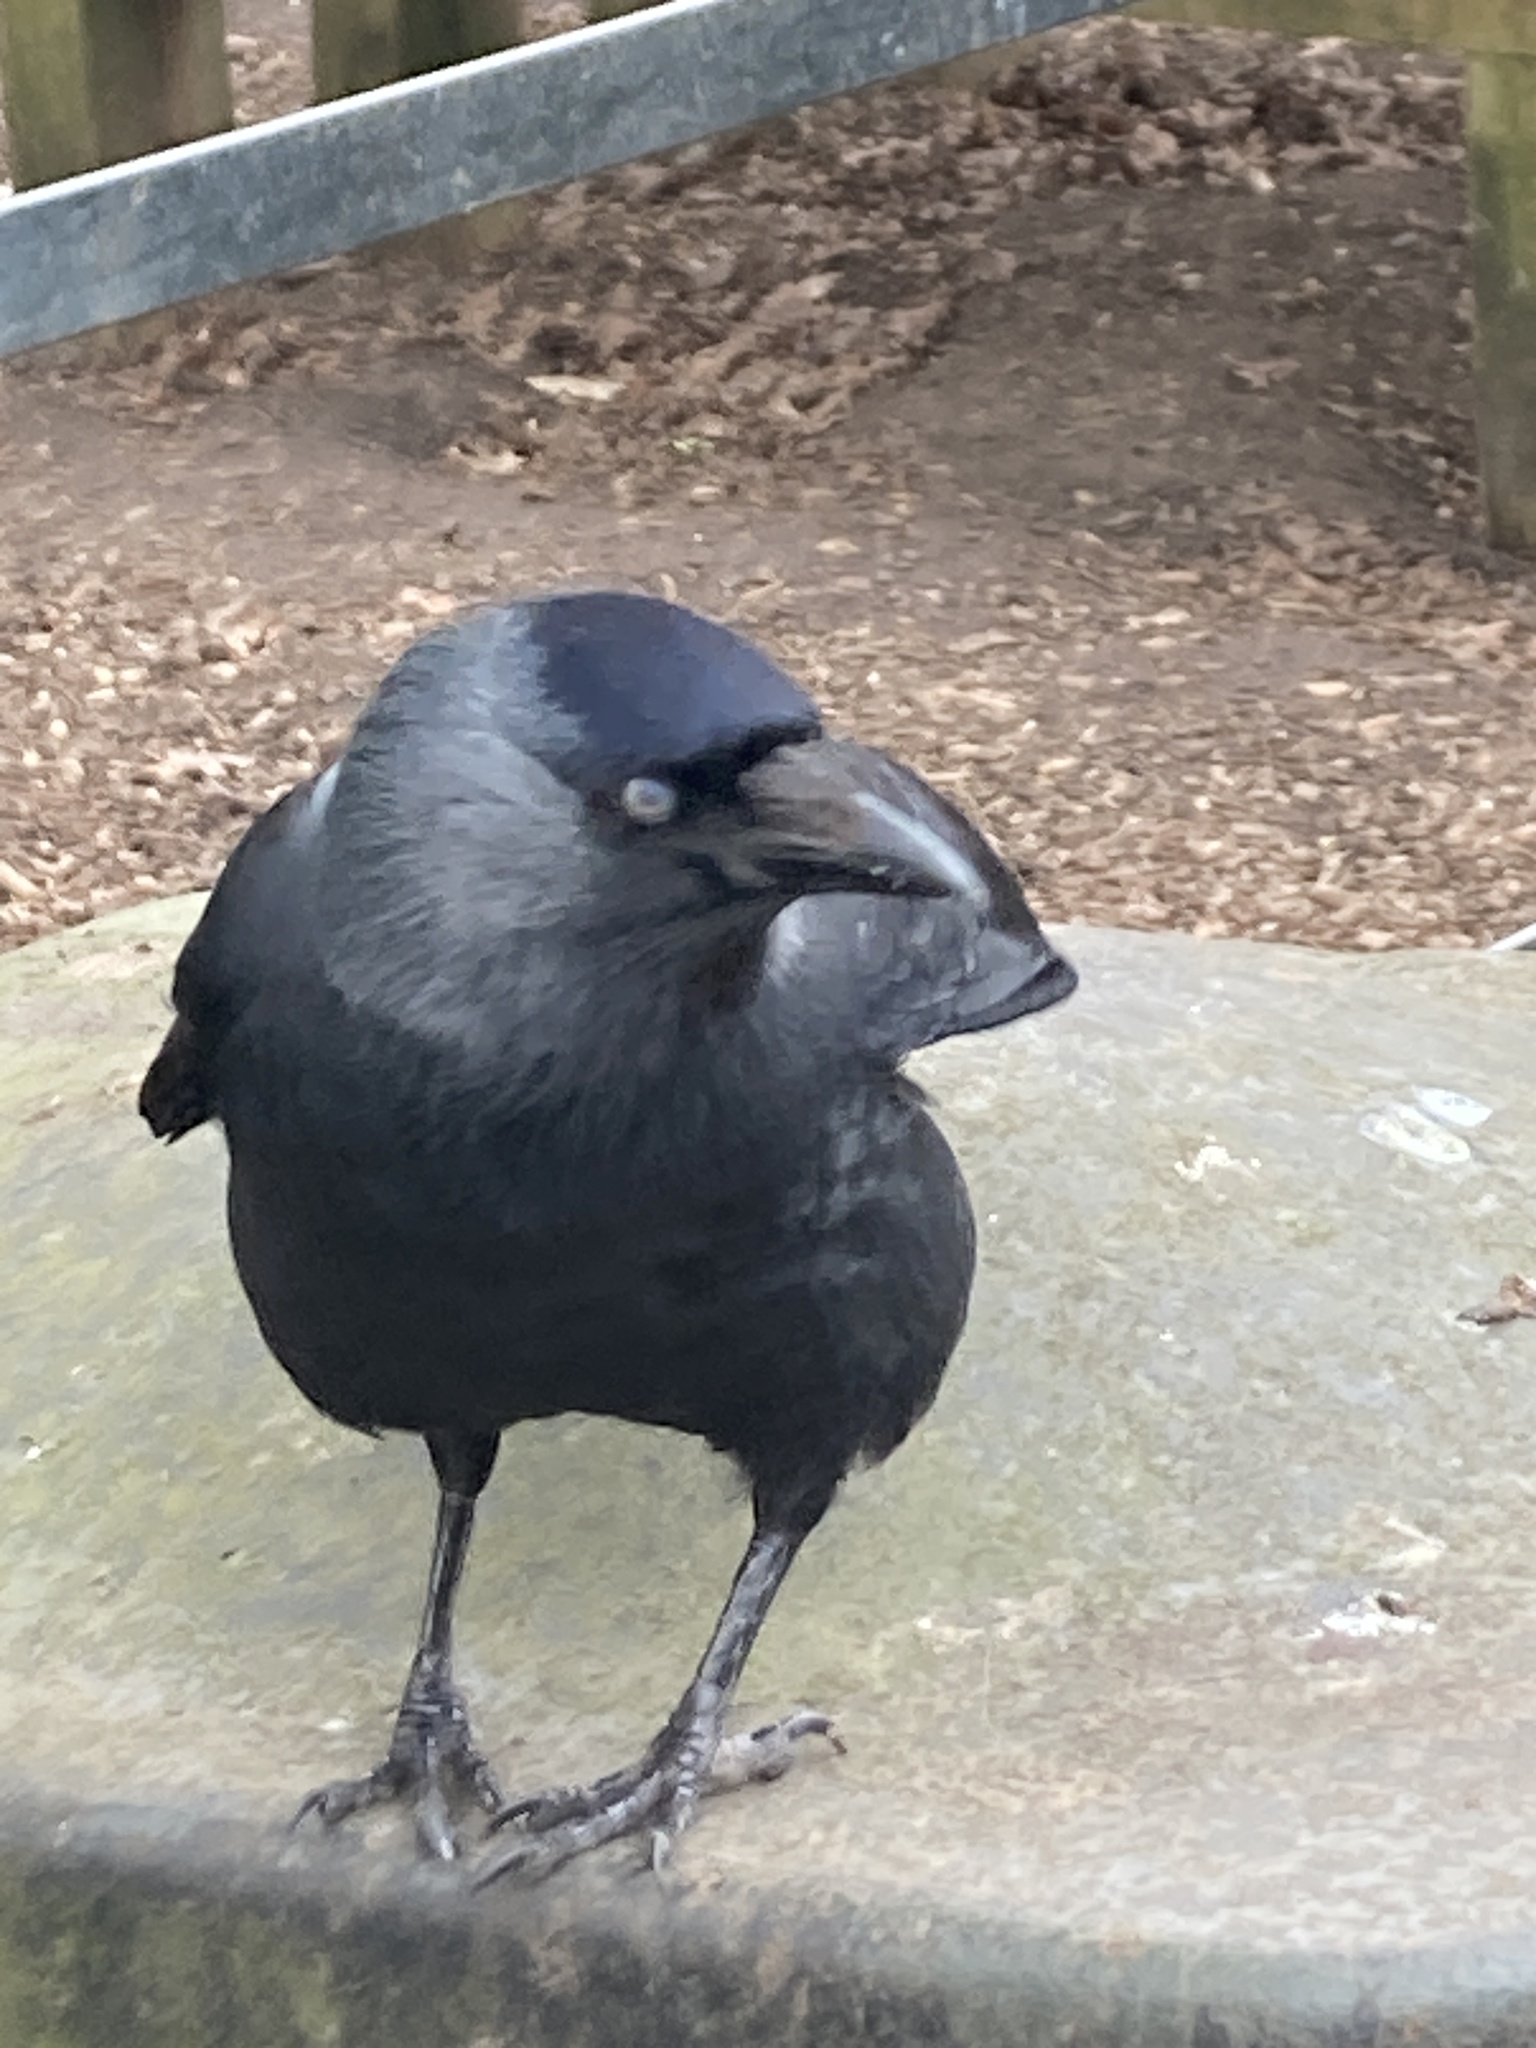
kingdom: Animalia
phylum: Chordata
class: Aves
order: Passeriformes
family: Corvidae
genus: Coloeus
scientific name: Coloeus monedula
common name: Western jackdaw
